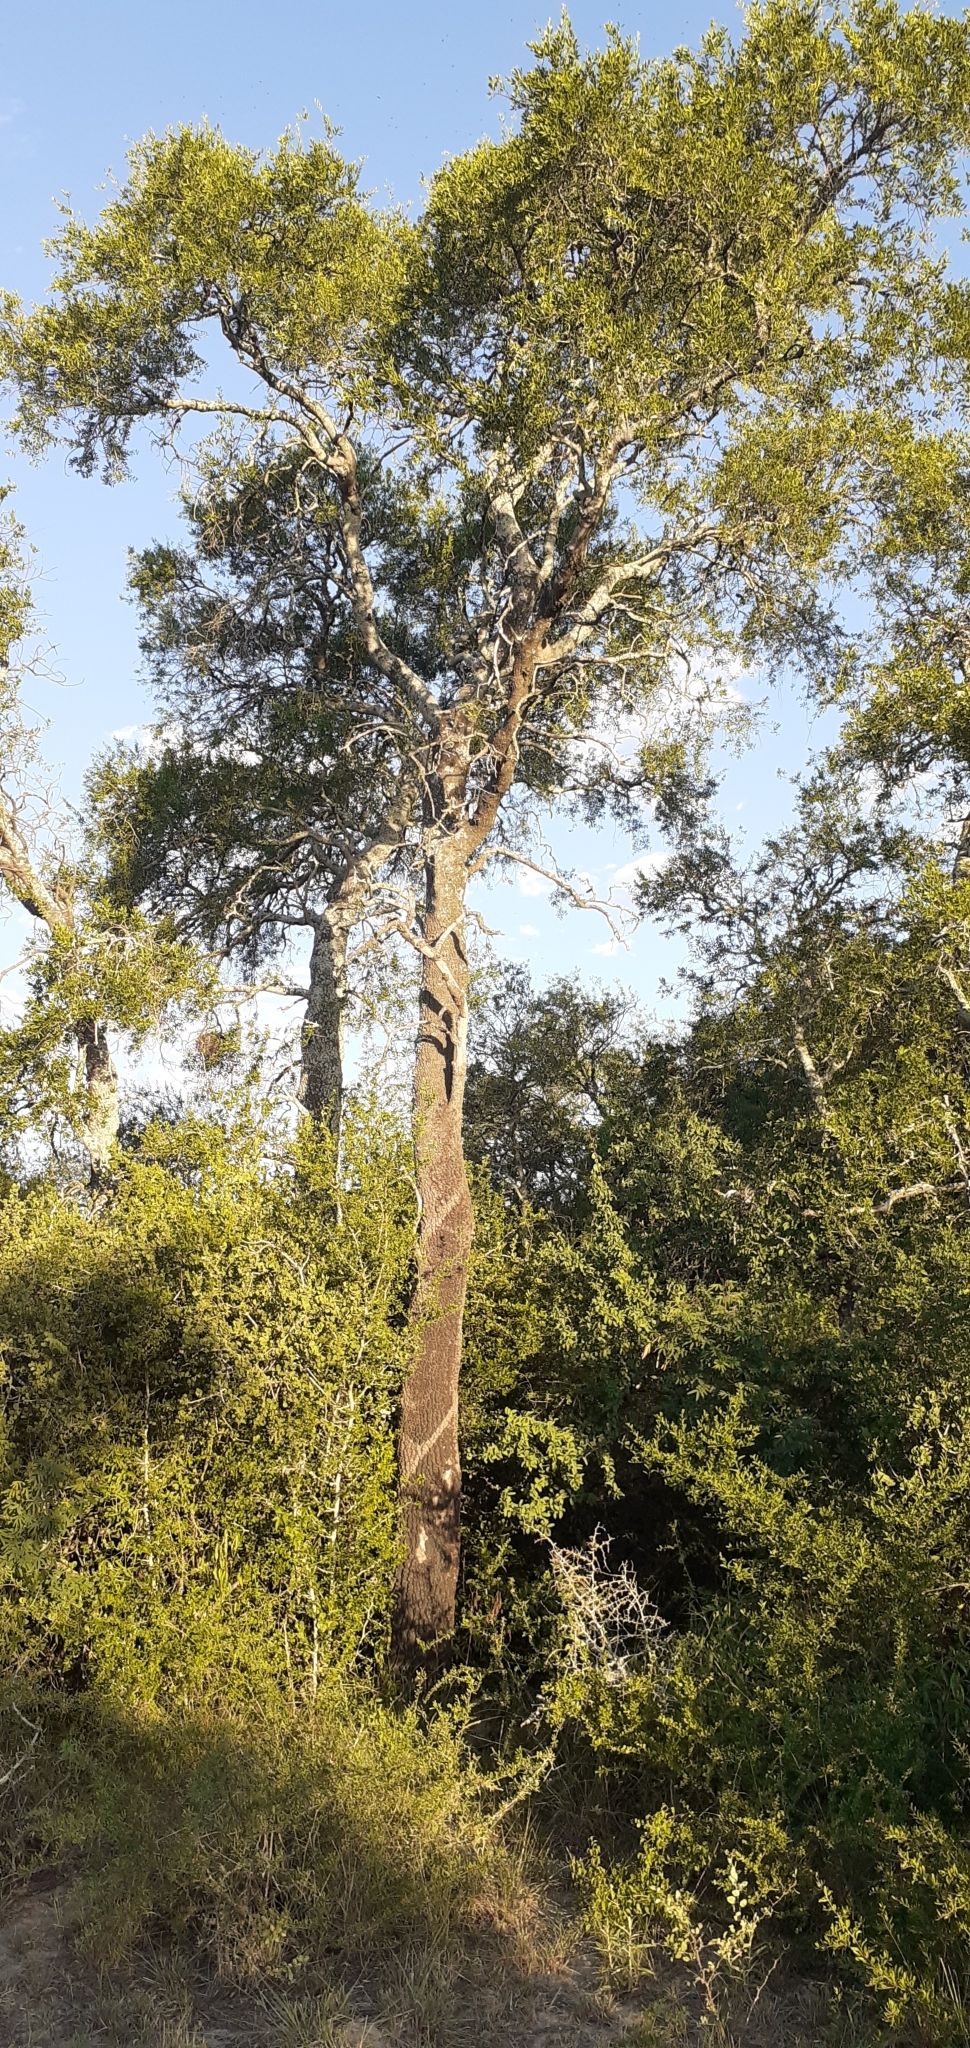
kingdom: Plantae
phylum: Tracheophyta
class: Magnoliopsida
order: Gentianales
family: Apocynaceae
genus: Aspidosperma
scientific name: Aspidosperma quebracho-blanco
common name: White quebracho
